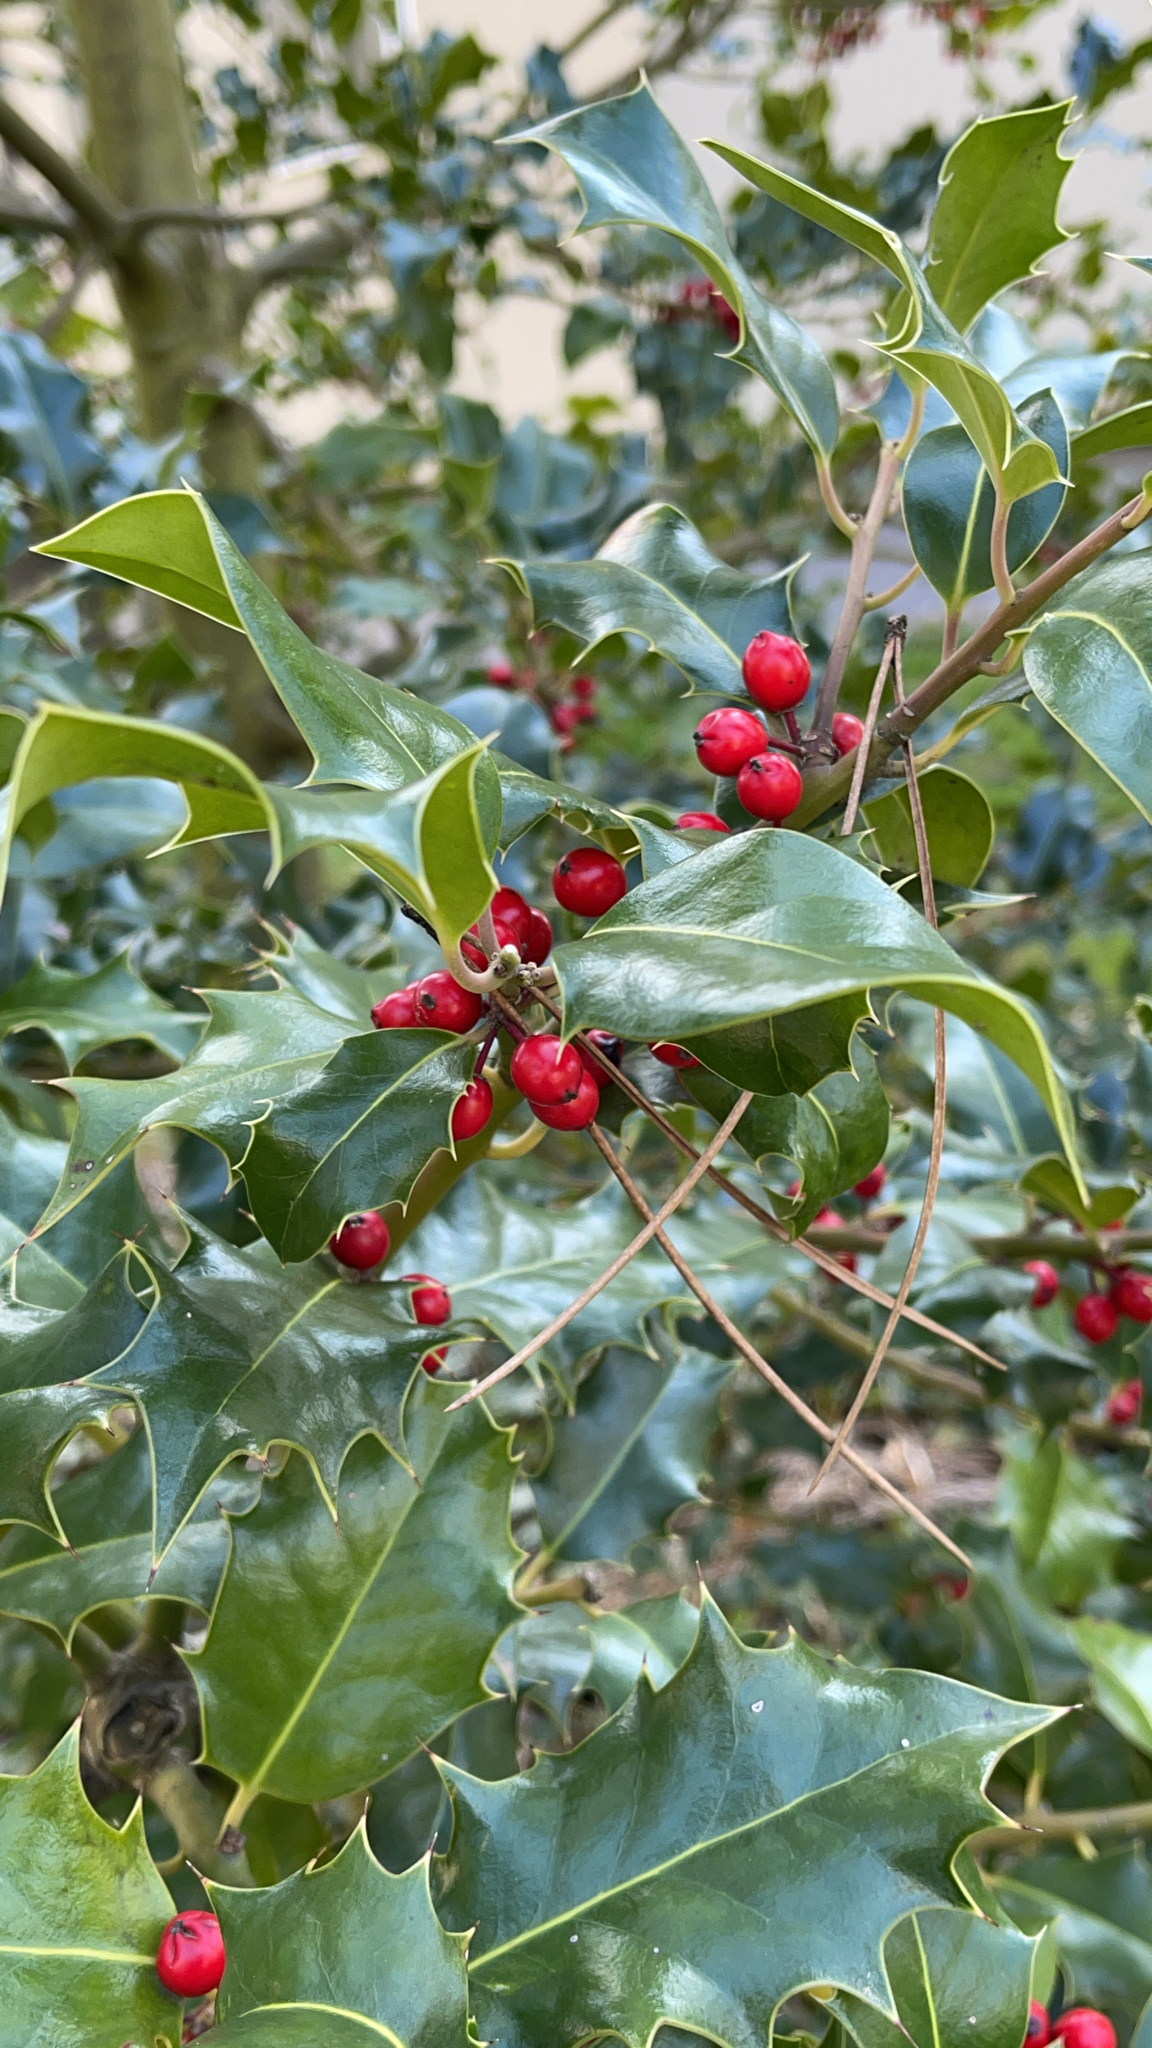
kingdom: Plantae
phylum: Tracheophyta
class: Magnoliopsida
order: Aquifoliales
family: Aquifoliaceae
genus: Ilex
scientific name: Ilex aquifolium
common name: English holly
